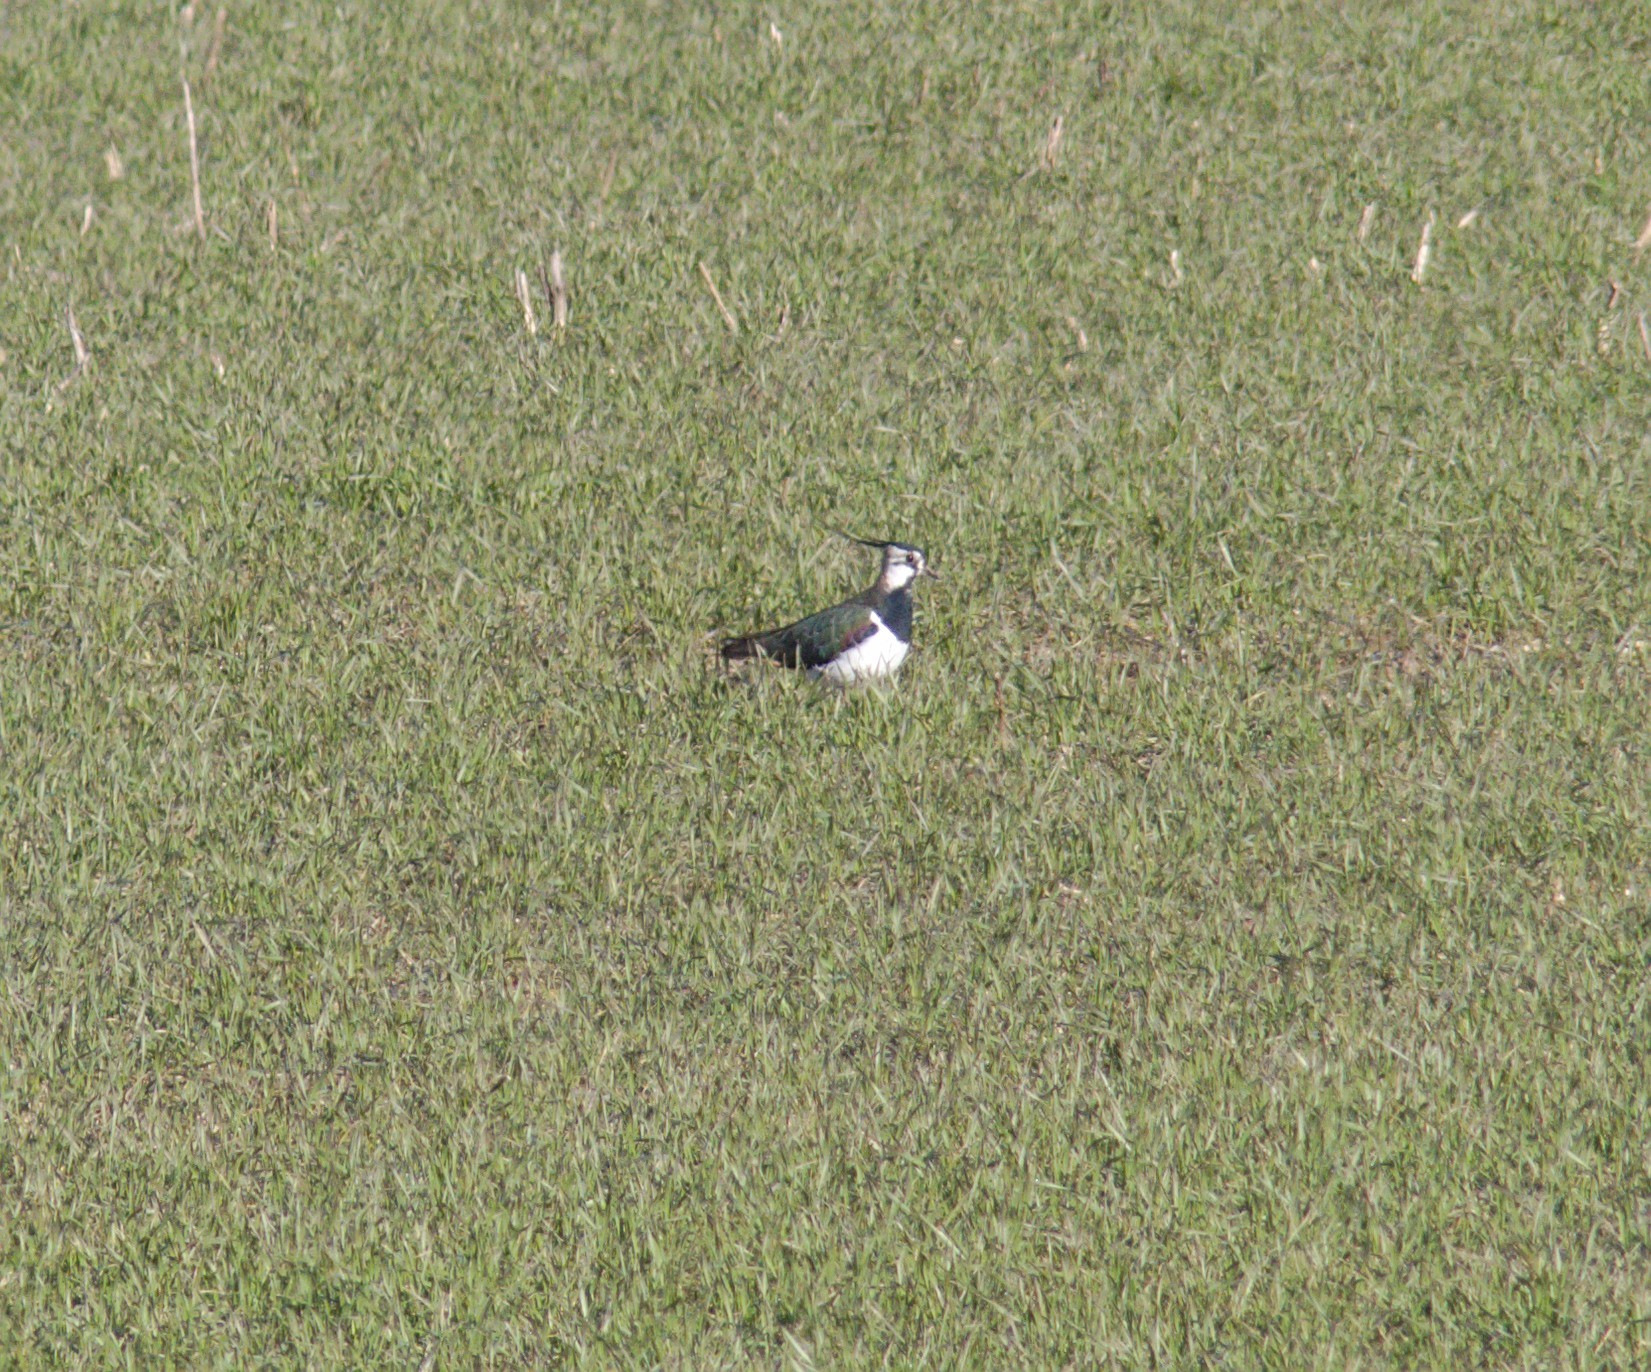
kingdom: Animalia
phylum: Chordata
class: Aves
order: Charadriiformes
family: Charadriidae
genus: Vanellus
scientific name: Vanellus vanellus
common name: Northern lapwing
